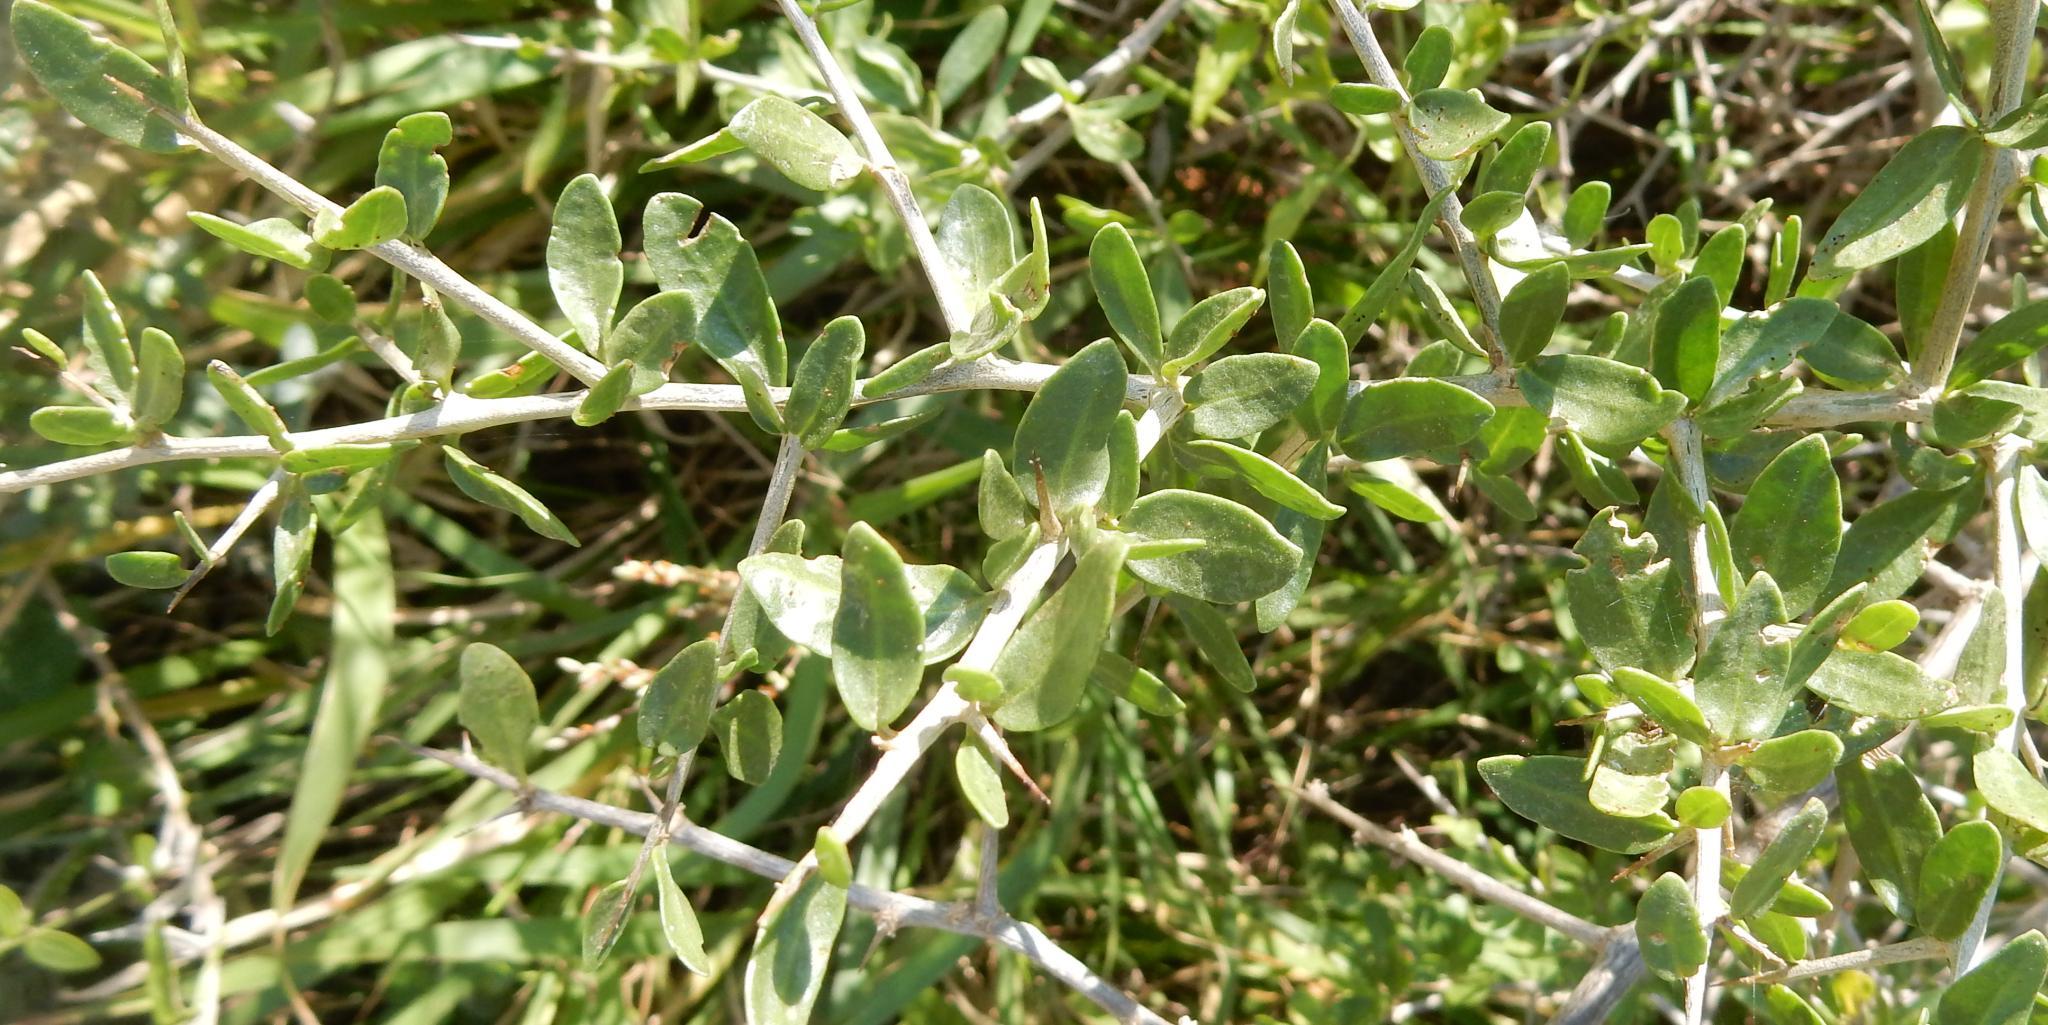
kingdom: Plantae
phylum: Tracheophyta
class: Magnoliopsida
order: Solanales
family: Solanaceae
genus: Lycium
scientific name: Lycium ferocissimum
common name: African boxthorn
